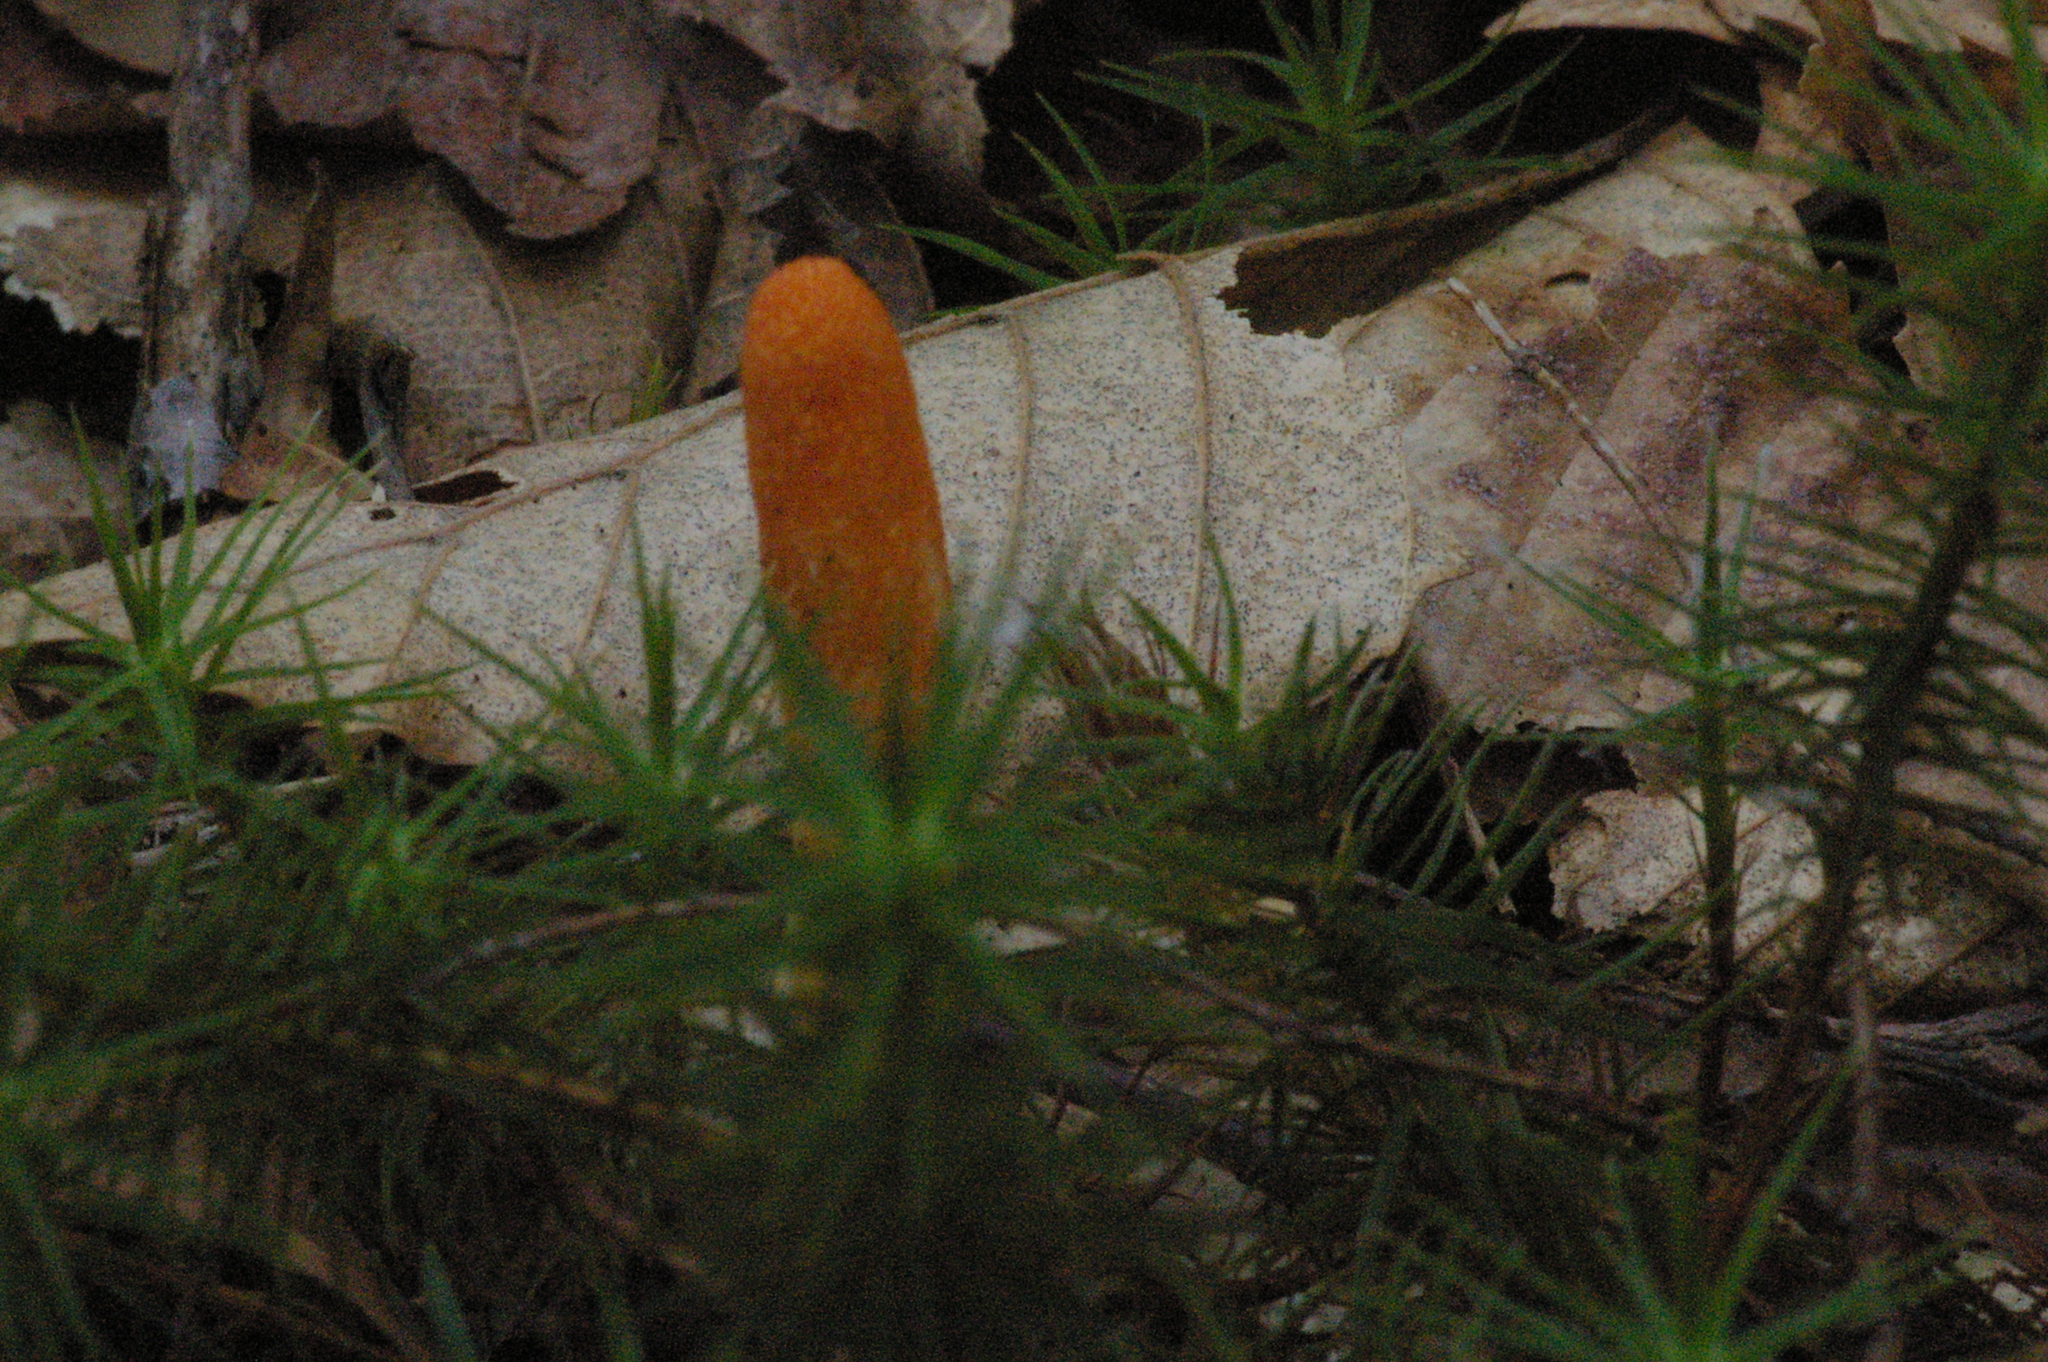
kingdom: Fungi
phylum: Ascomycota
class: Sordariomycetes
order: Hypocreales
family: Cordycipitaceae
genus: Cordyceps
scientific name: Cordyceps militaris
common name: Scarlet caterpillar fungus
